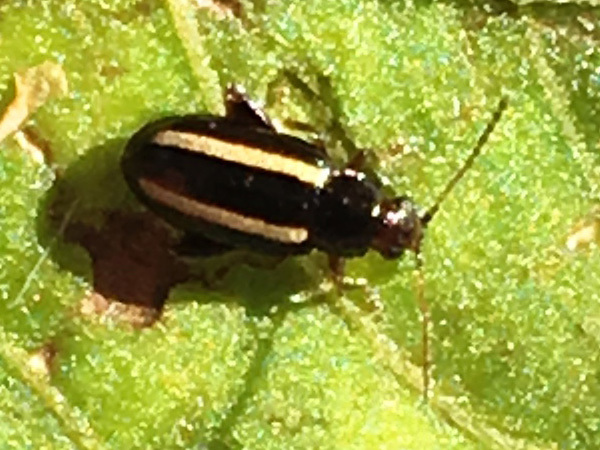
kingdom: Animalia
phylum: Arthropoda
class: Insecta
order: Coleoptera
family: Chrysomelidae
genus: Systena
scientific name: Systena elongata
